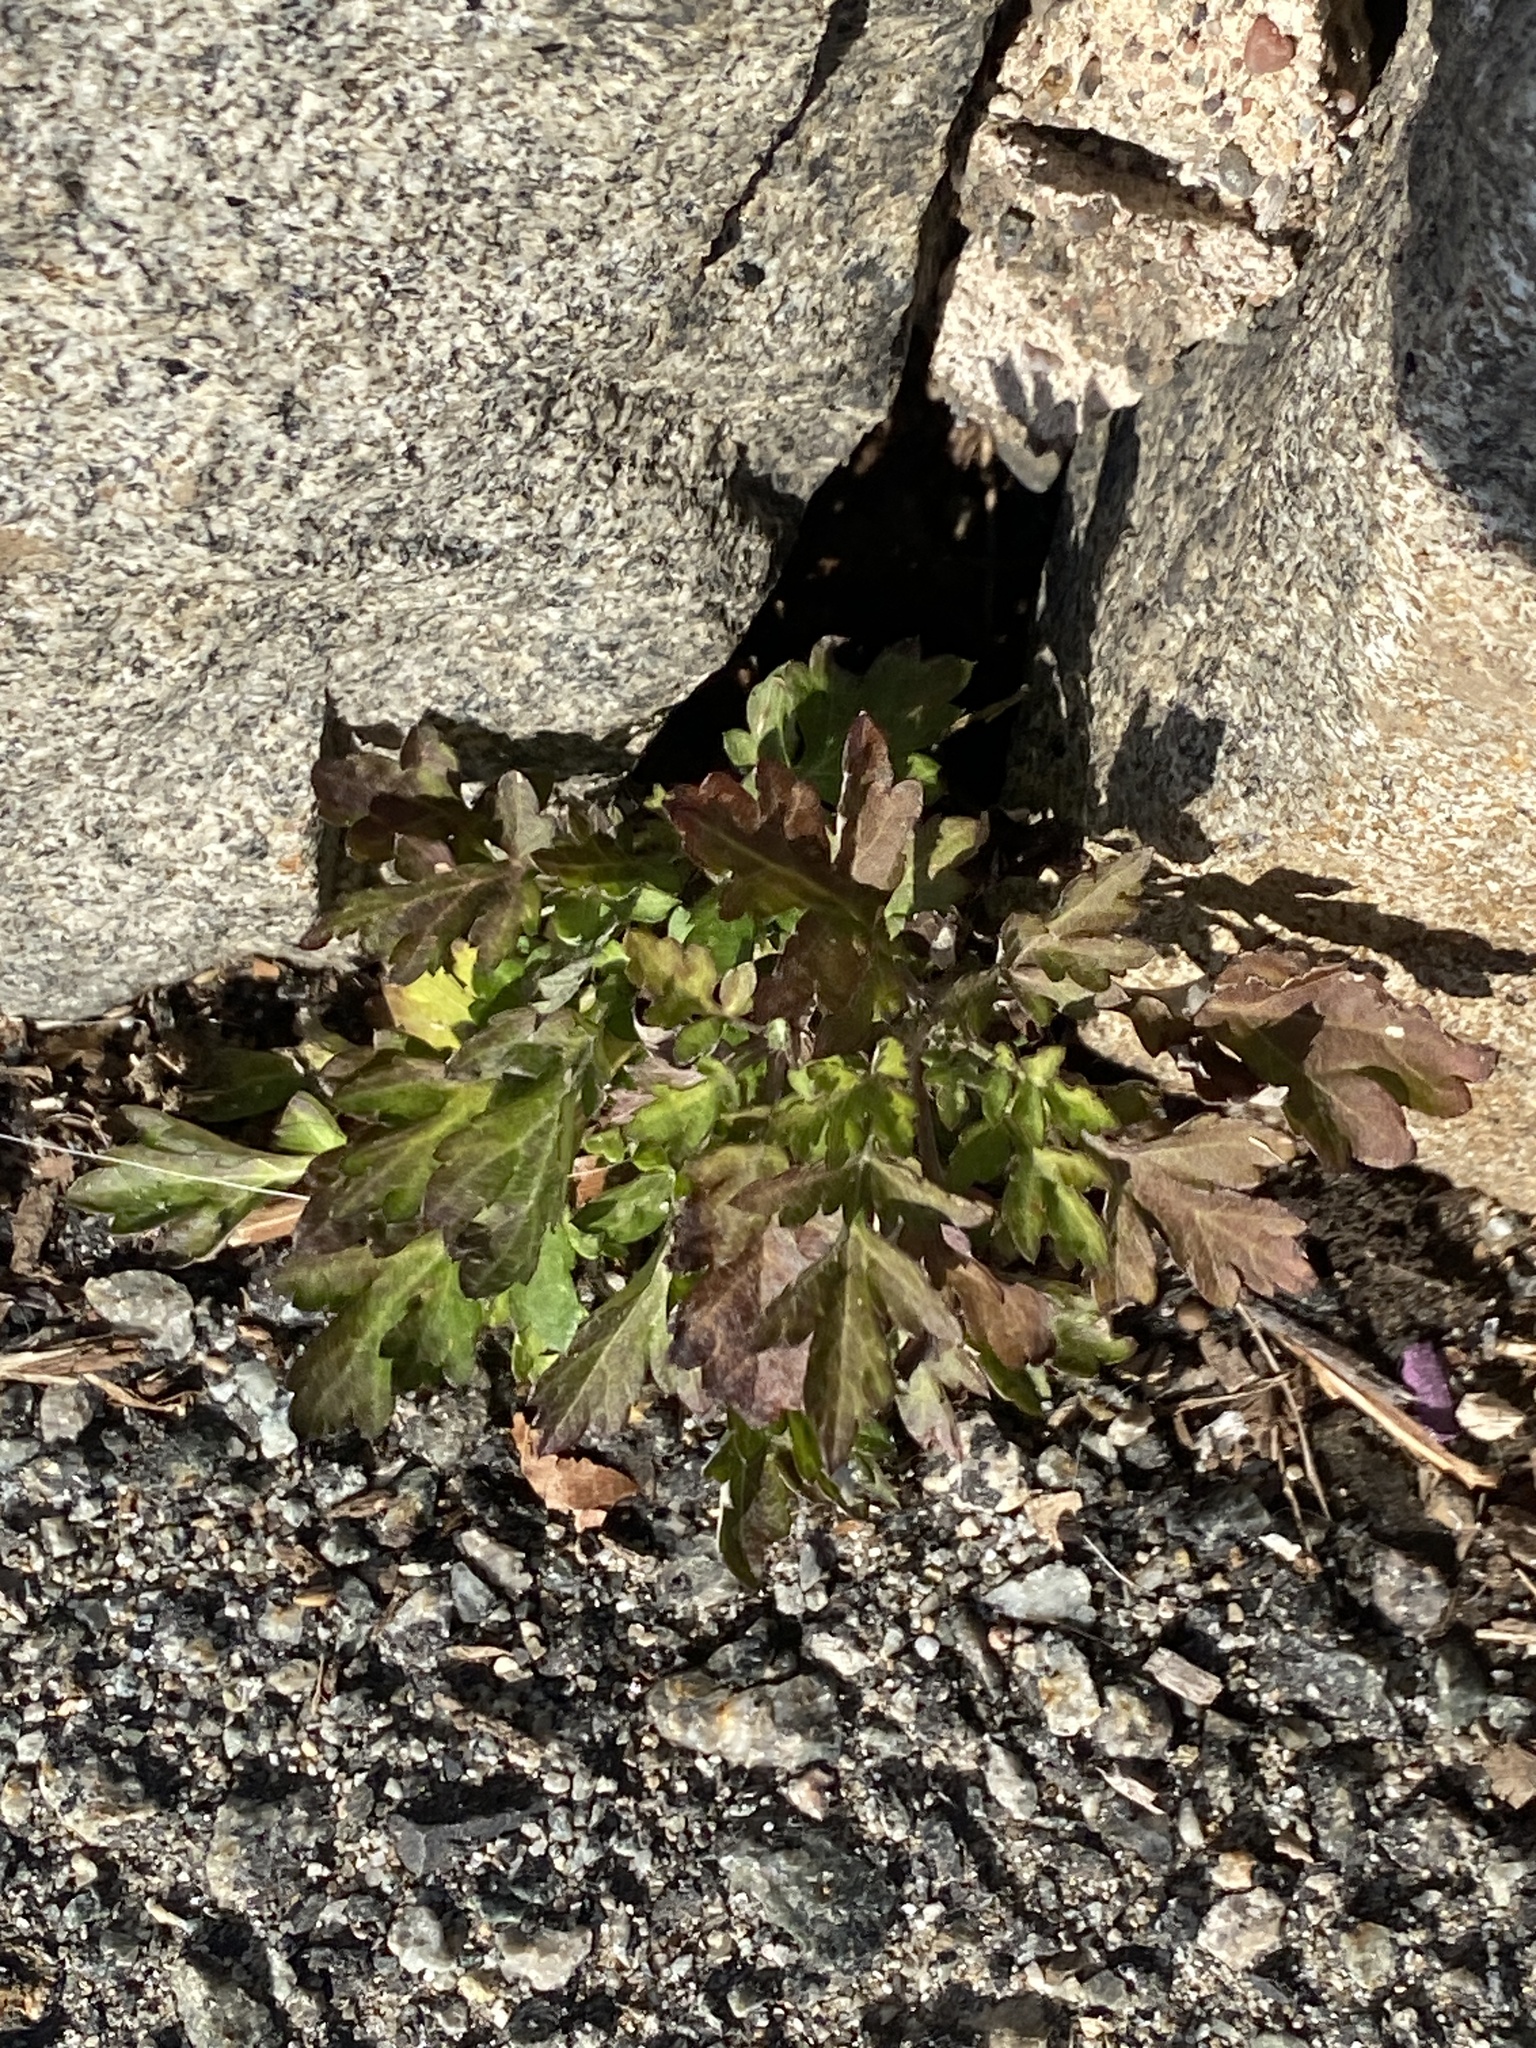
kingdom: Plantae
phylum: Tracheophyta
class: Magnoliopsida
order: Asterales
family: Asteraceae
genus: Artemisia
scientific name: Artemisia vulgaris
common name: Mugwort
